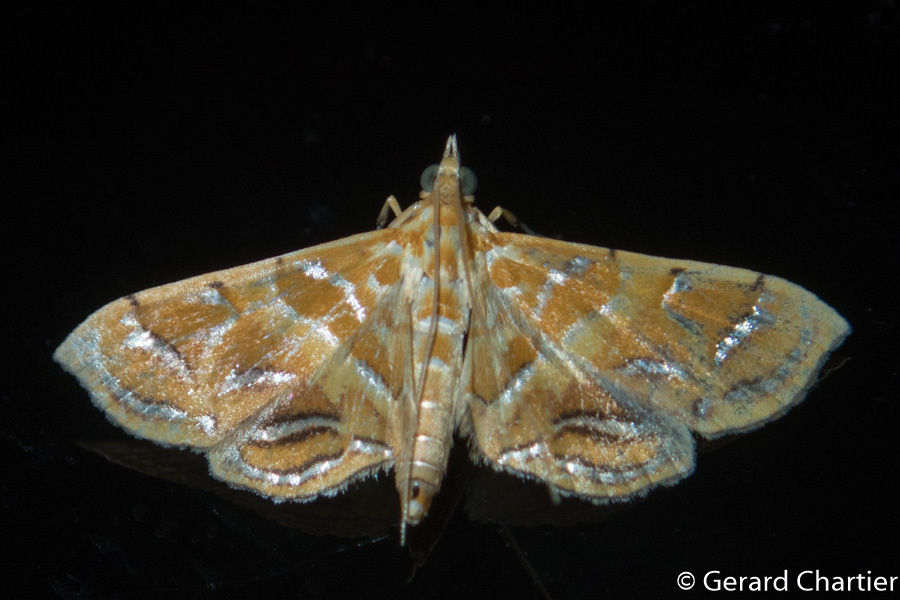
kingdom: Animalia
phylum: Arthropoda
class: Insecta
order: Lepidoptera
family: Crambidae
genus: Daulia
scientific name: Daulia afralis
